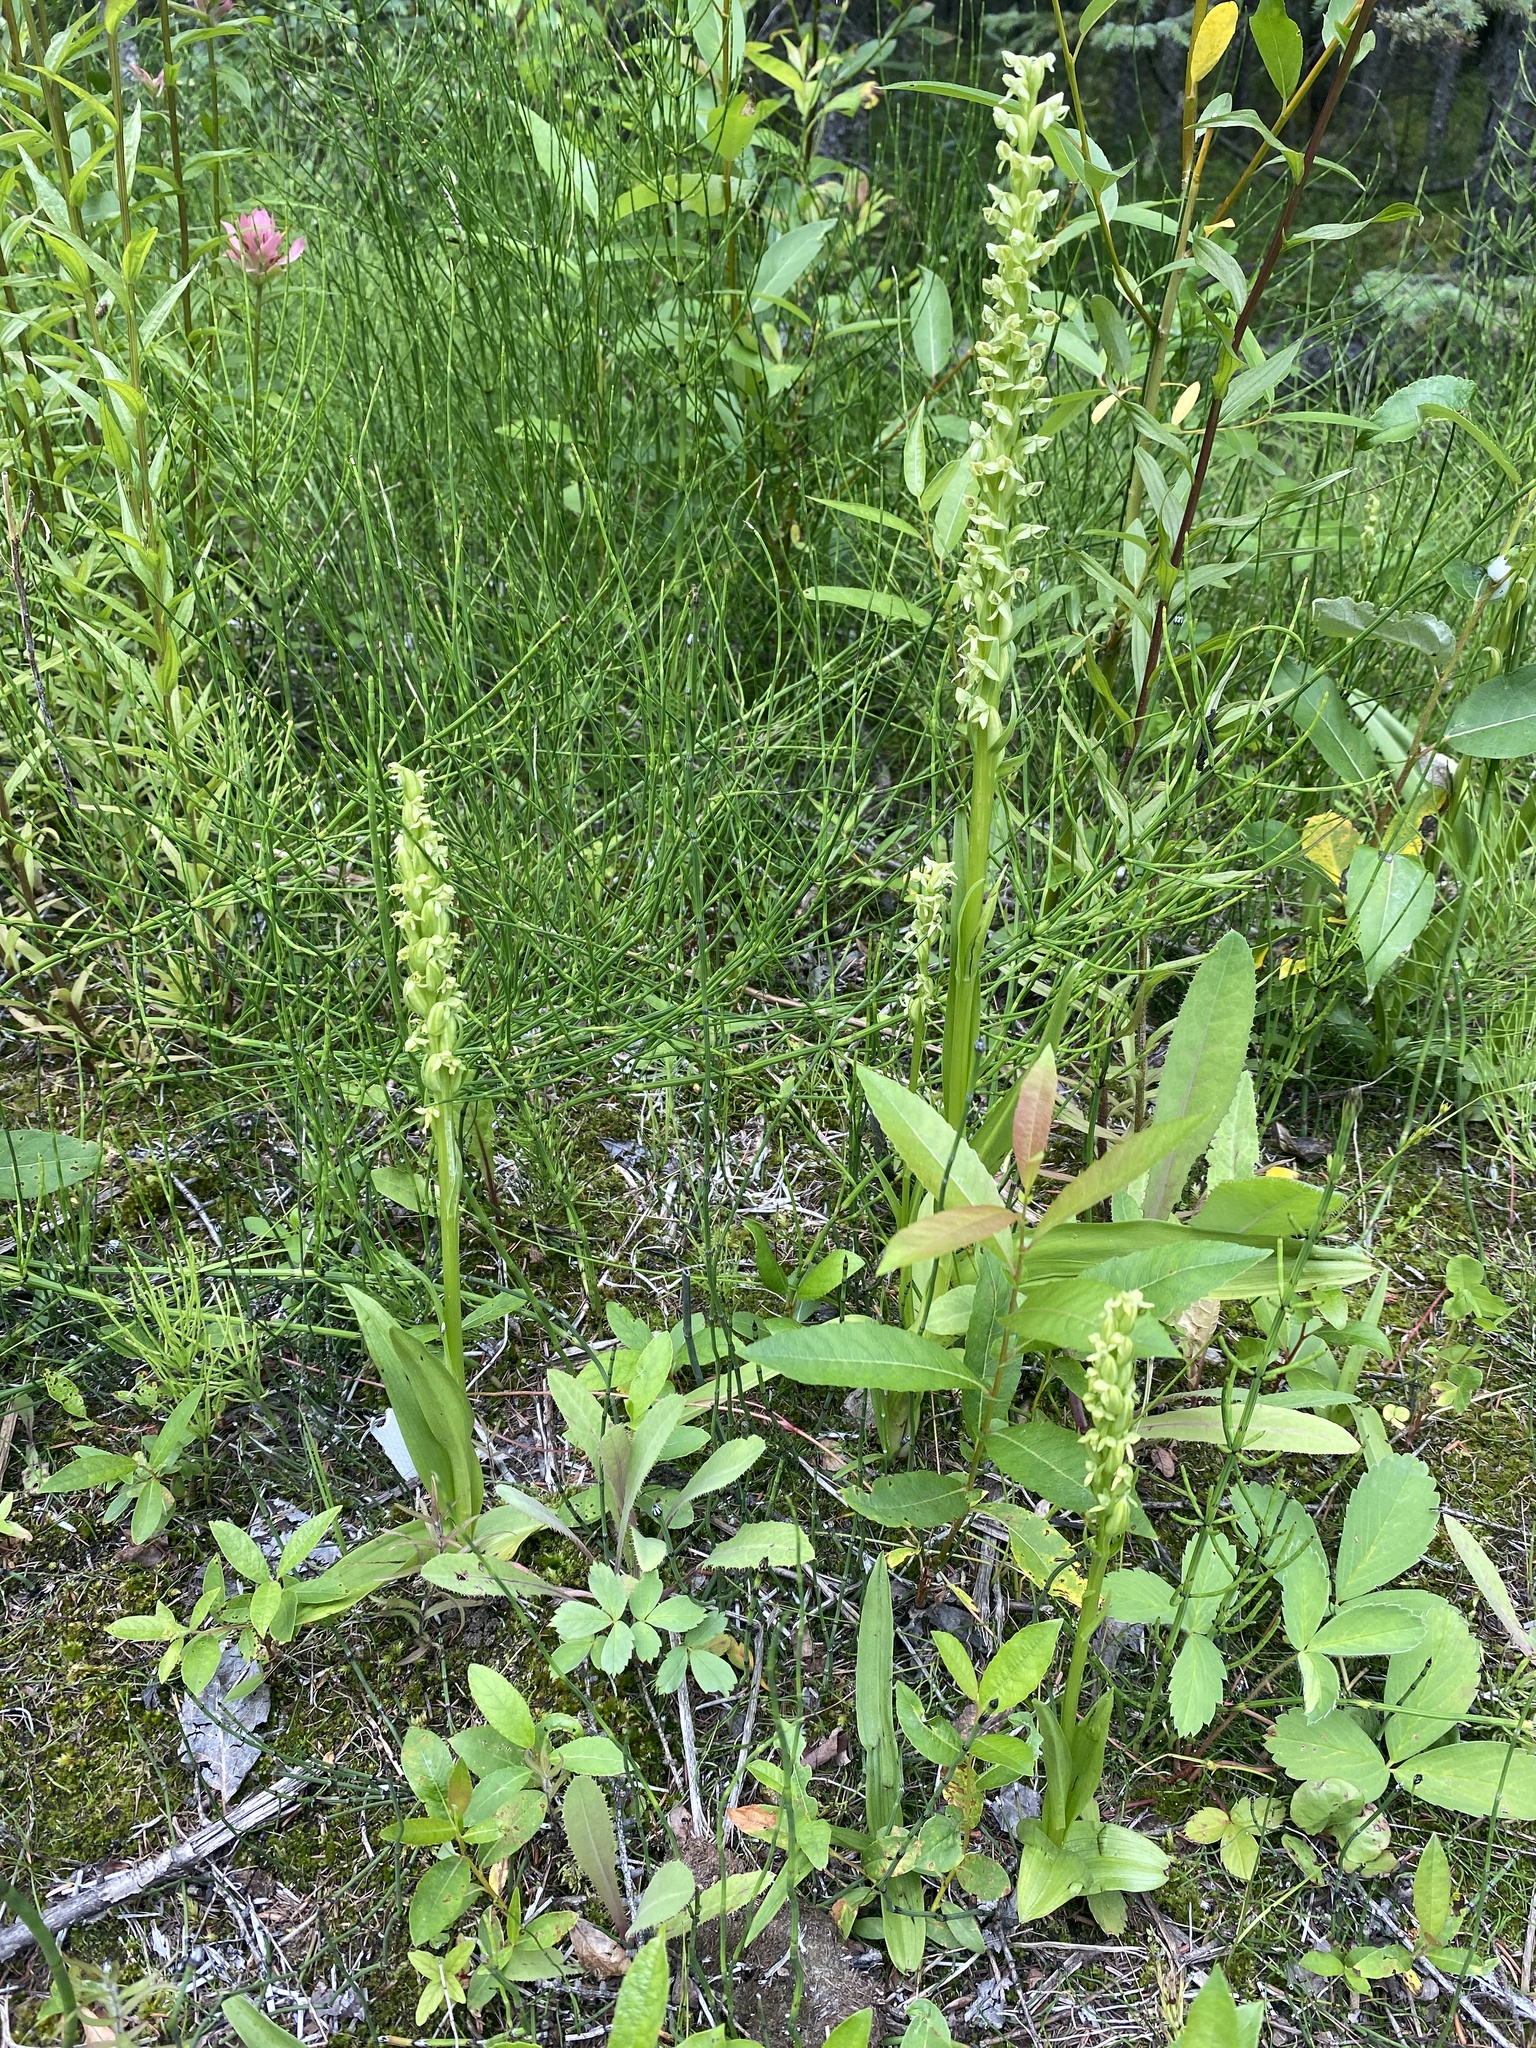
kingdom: Plantae
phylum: Tracheophyta
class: Liliopsida
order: Asparagales
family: Orchidaceae
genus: Platanthera
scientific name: Platanthera huronensis
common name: Fragrant green orchid
